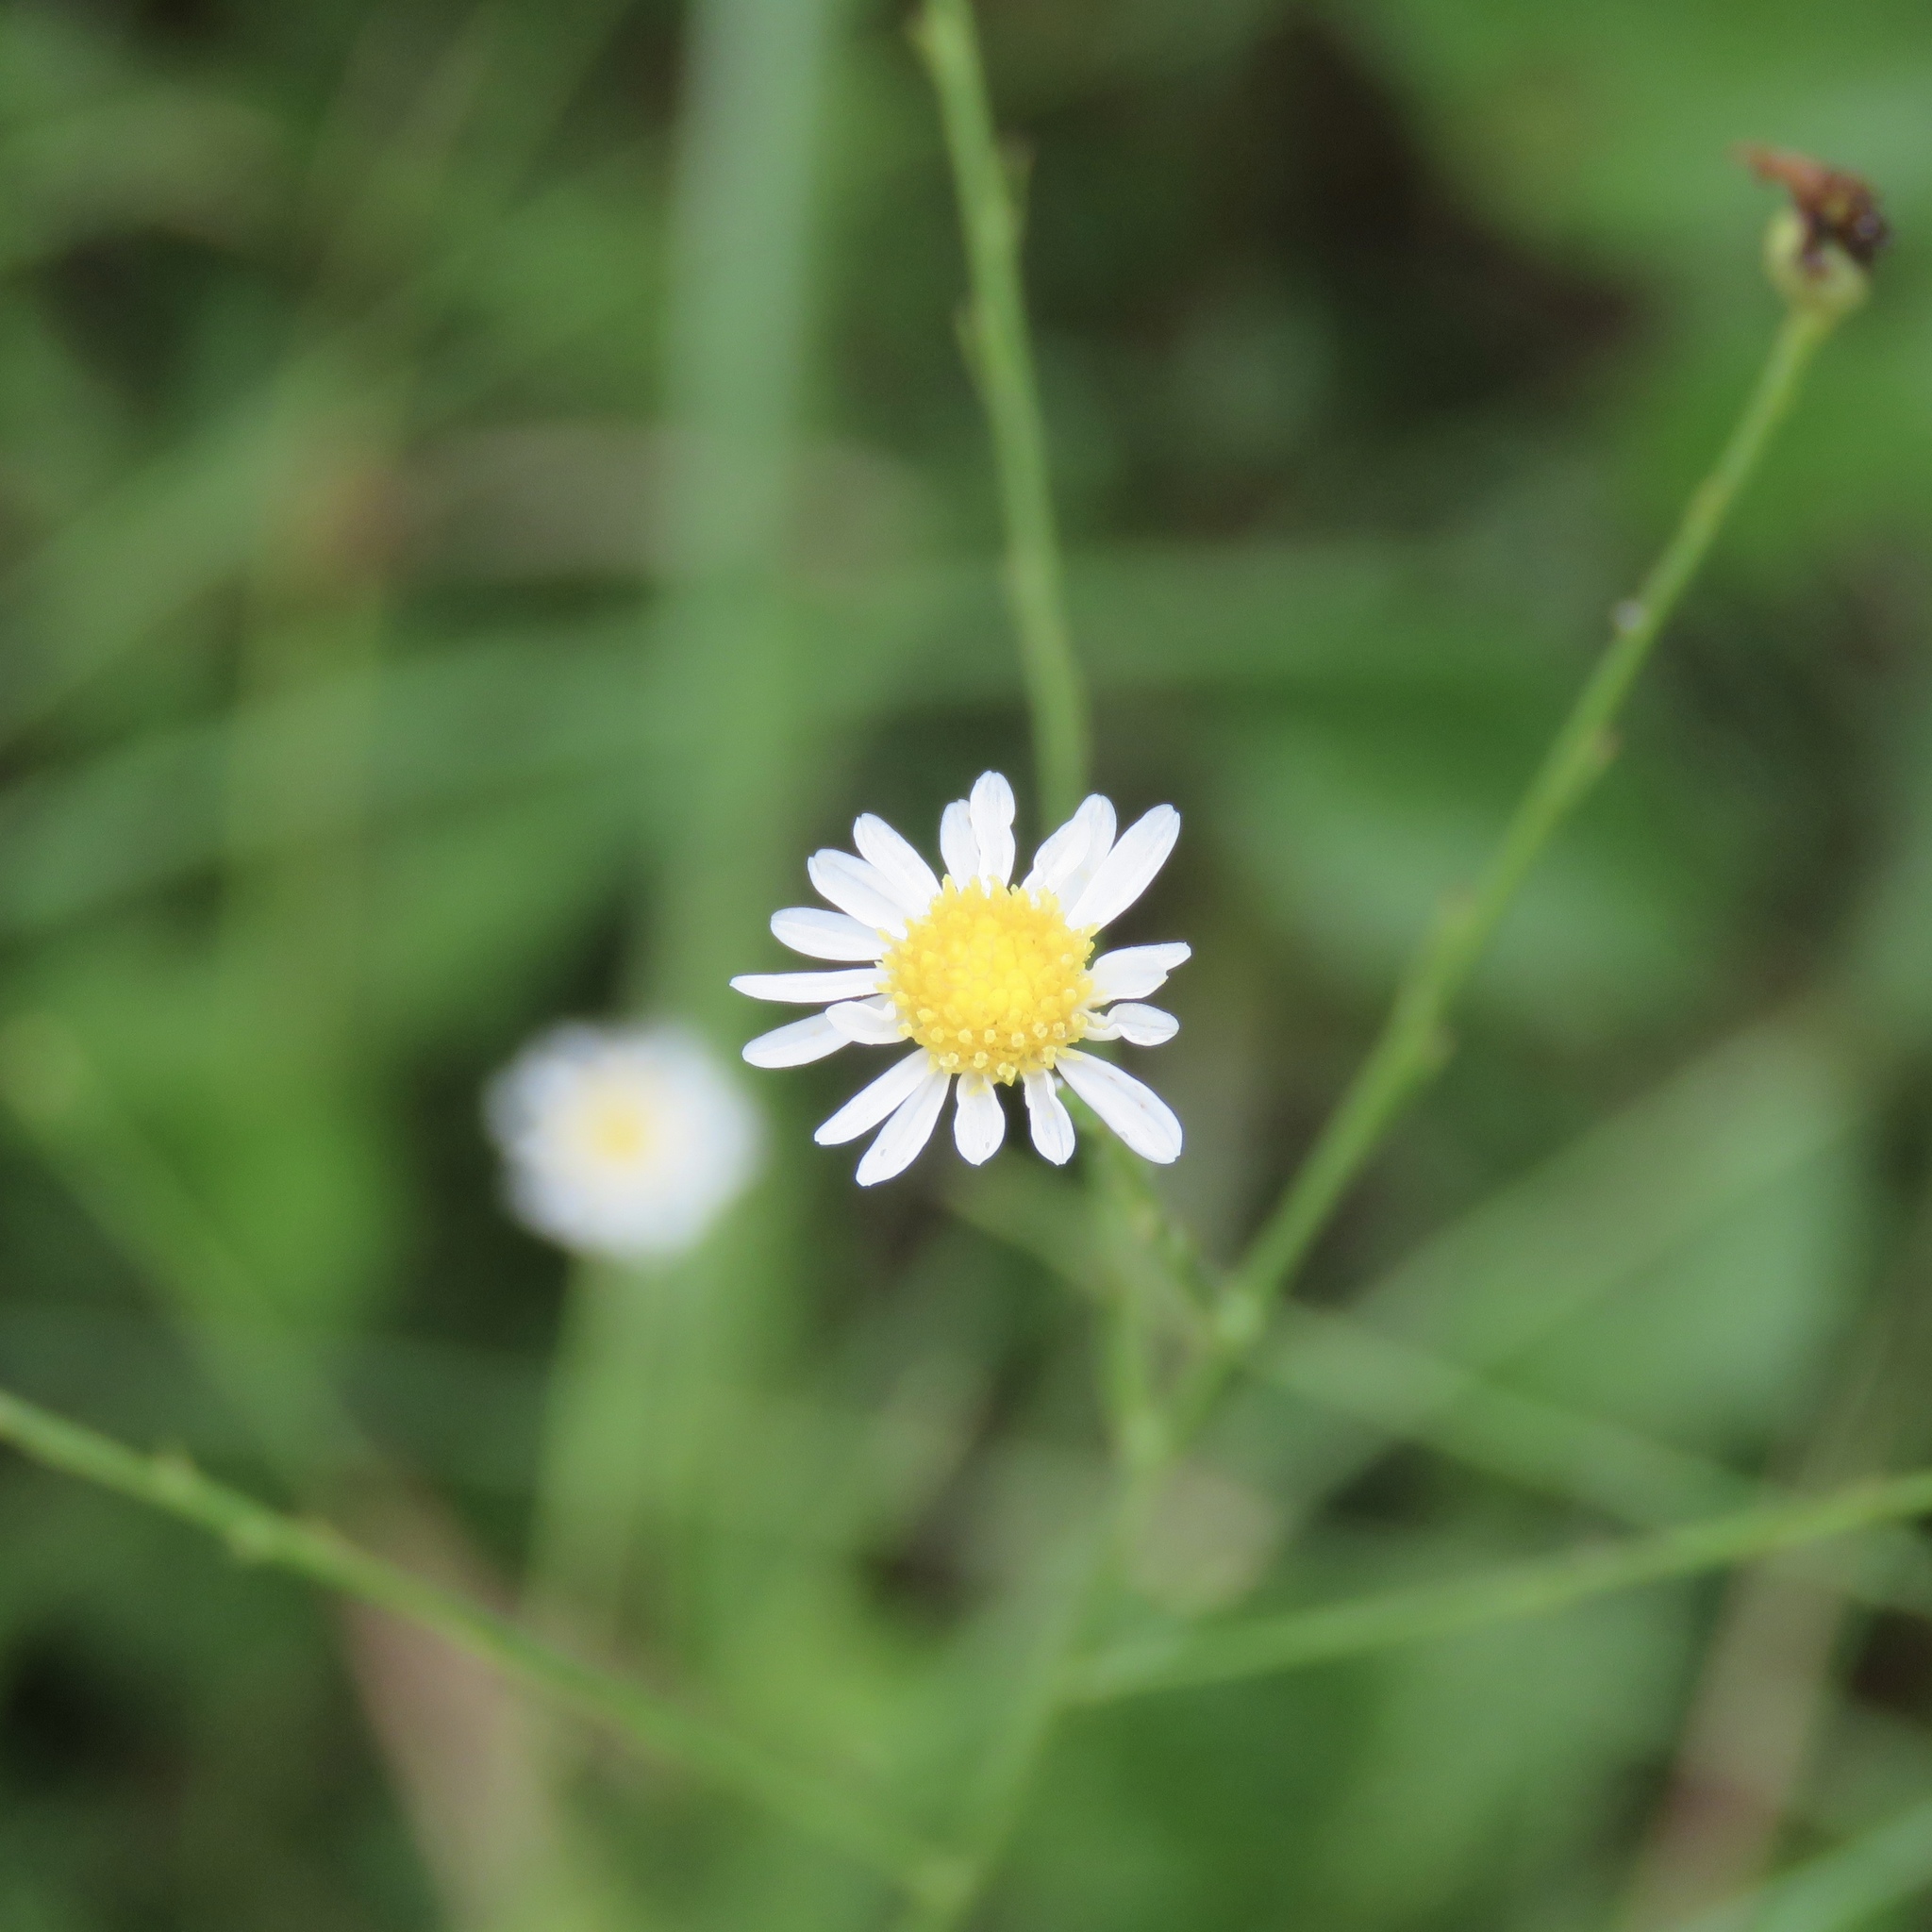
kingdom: Plantae
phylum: Tracheophyta
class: Magnoliopsida
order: Asterales
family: Asteraceae
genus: Boltonia
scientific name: Boltonia diffusa
